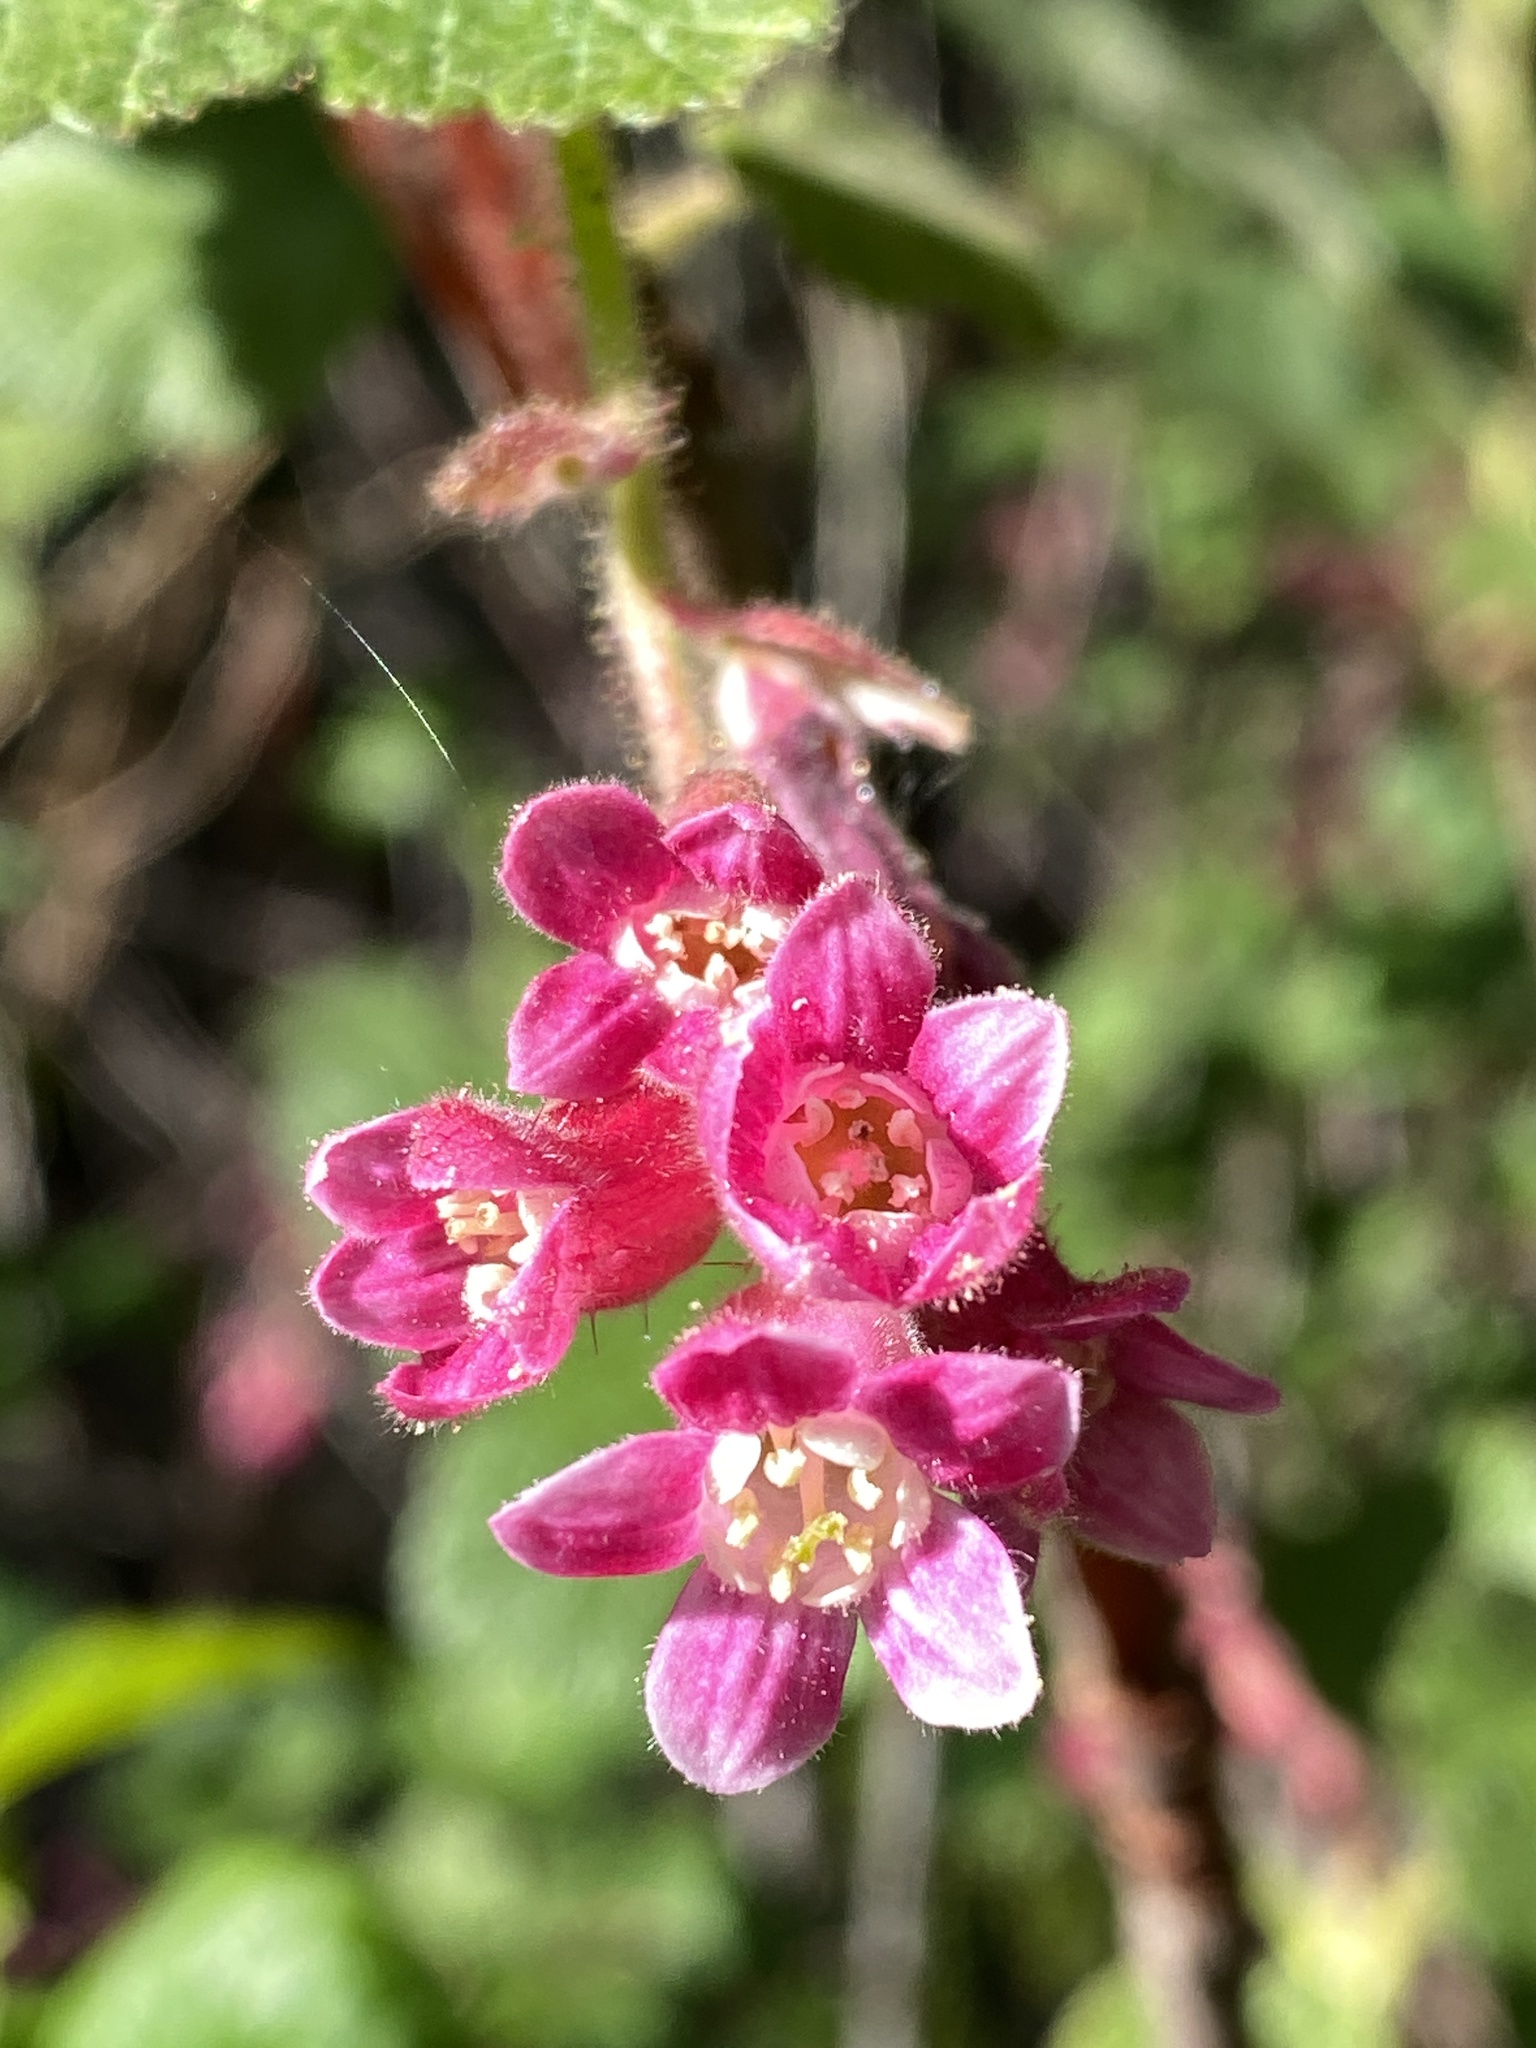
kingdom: Plantae
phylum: Tracheophyta
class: Magnoliopsida
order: Saxifragales
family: Grossulariaceae
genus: Ribes
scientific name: Ribes malvaceum
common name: Chaparral currant
